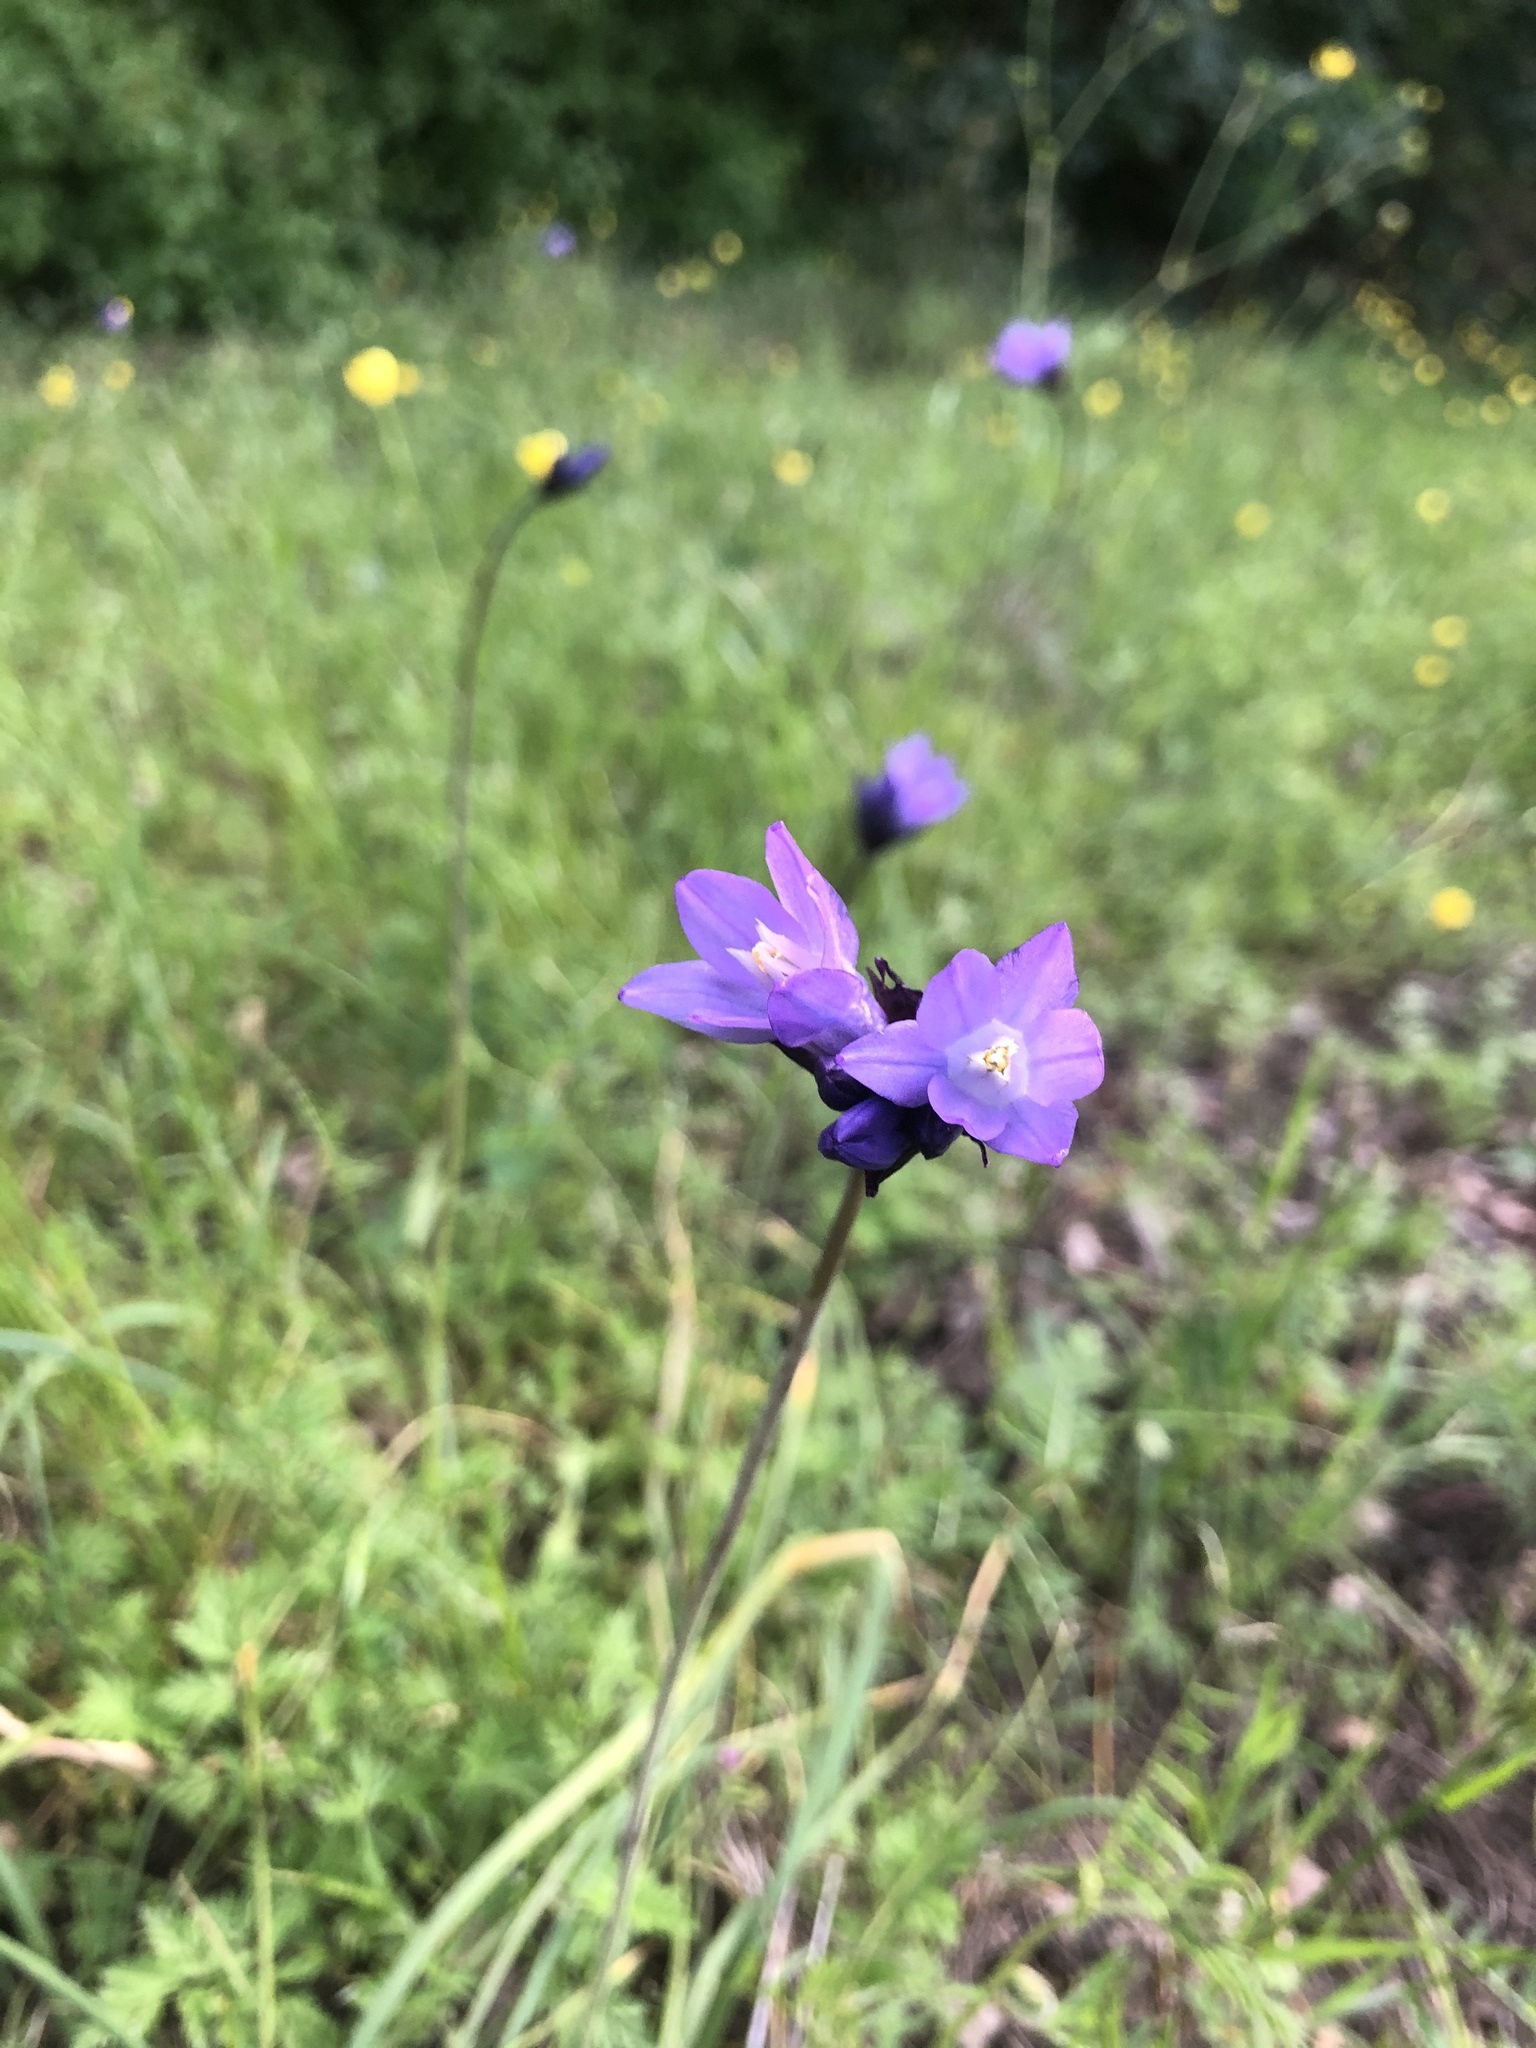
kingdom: Plantae
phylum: Tracheophyta
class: Liliopsida
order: Asparagales
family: Asparagaceae
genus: Dipterostemon
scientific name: Dipterostemon capitatus
